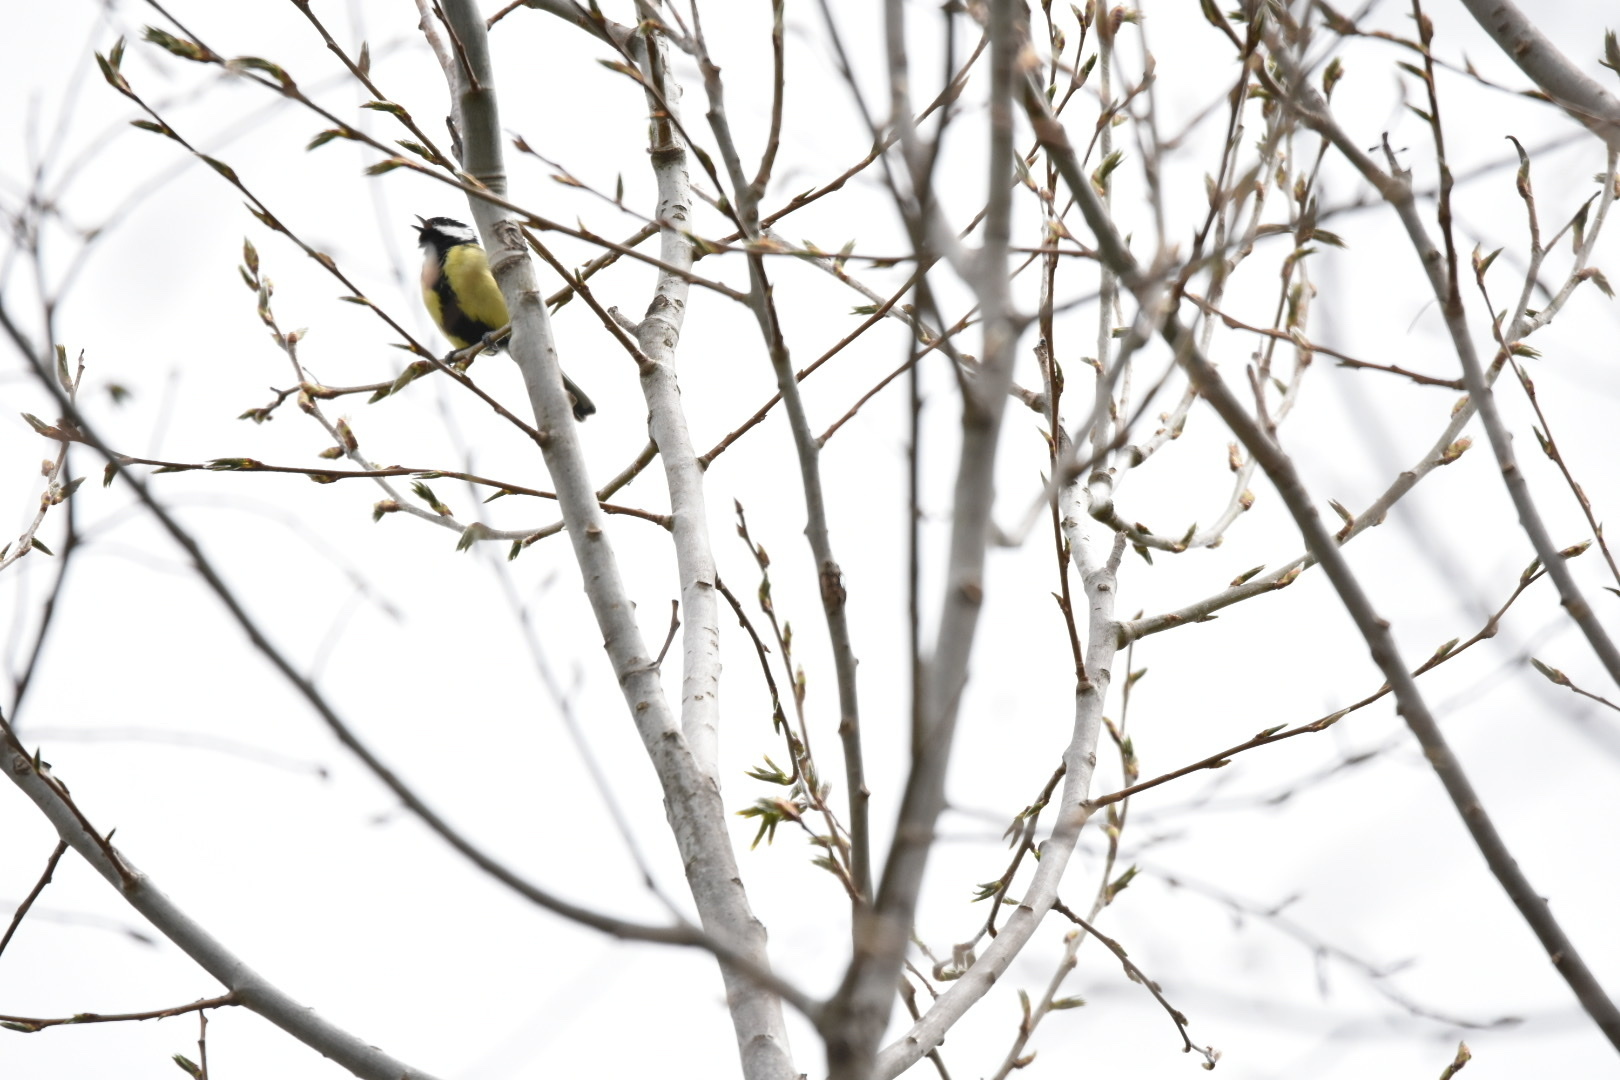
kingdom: Animalia
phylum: Chordata
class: Aves
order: Passeriformes
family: Paridae
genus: Parus
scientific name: Parus major
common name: Great tit
